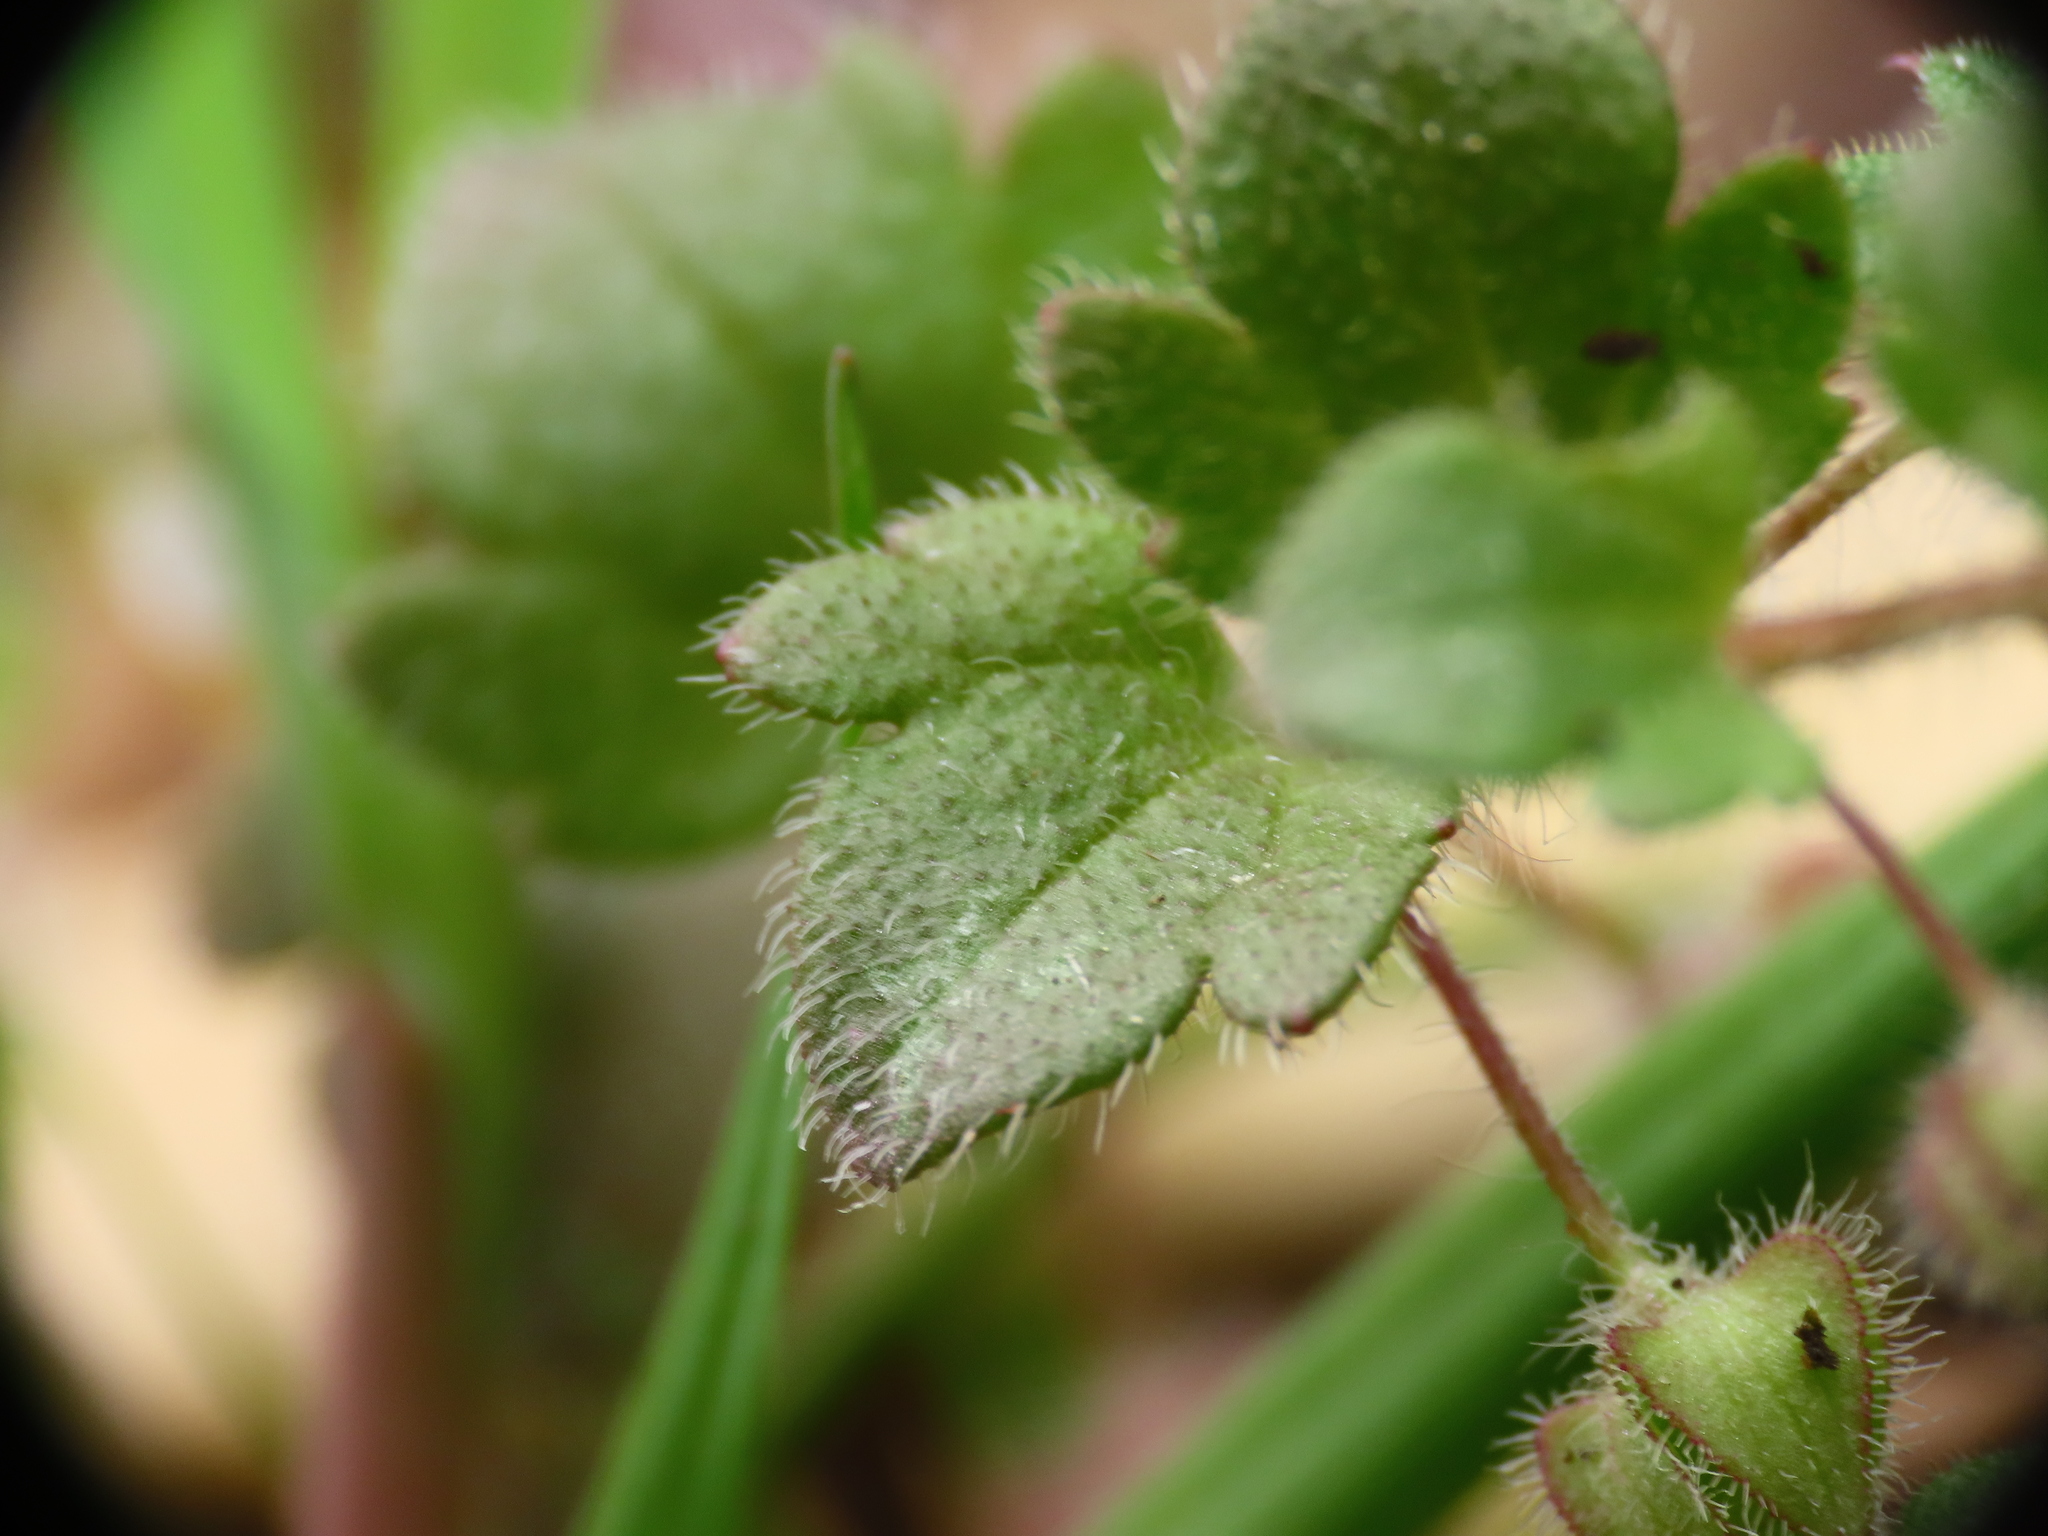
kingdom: Plantae
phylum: Tracheophyta
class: Magnoliopsida
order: Lamiales
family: Plantaginaceae
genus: Veronica
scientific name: Veronica hederifolia
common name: Ivy-leaved speedwell
